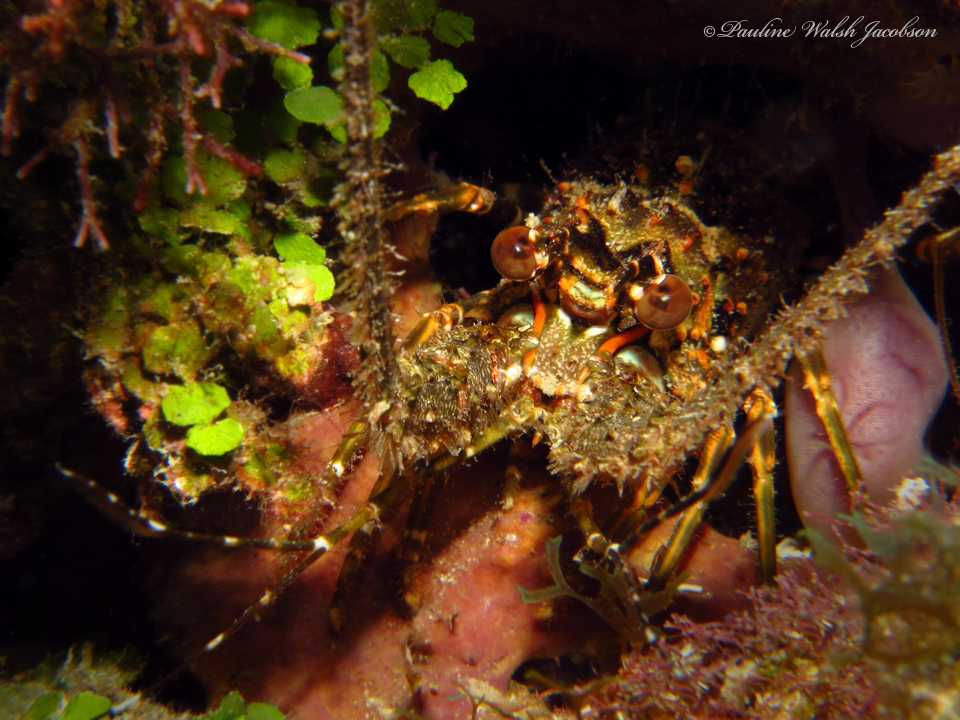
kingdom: Animalia
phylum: Arthropoda
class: Malacostraca
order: Decapoda
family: Palinuridae
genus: Panulirus
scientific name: Panulirus argus
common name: Caribbean spiny lobster
